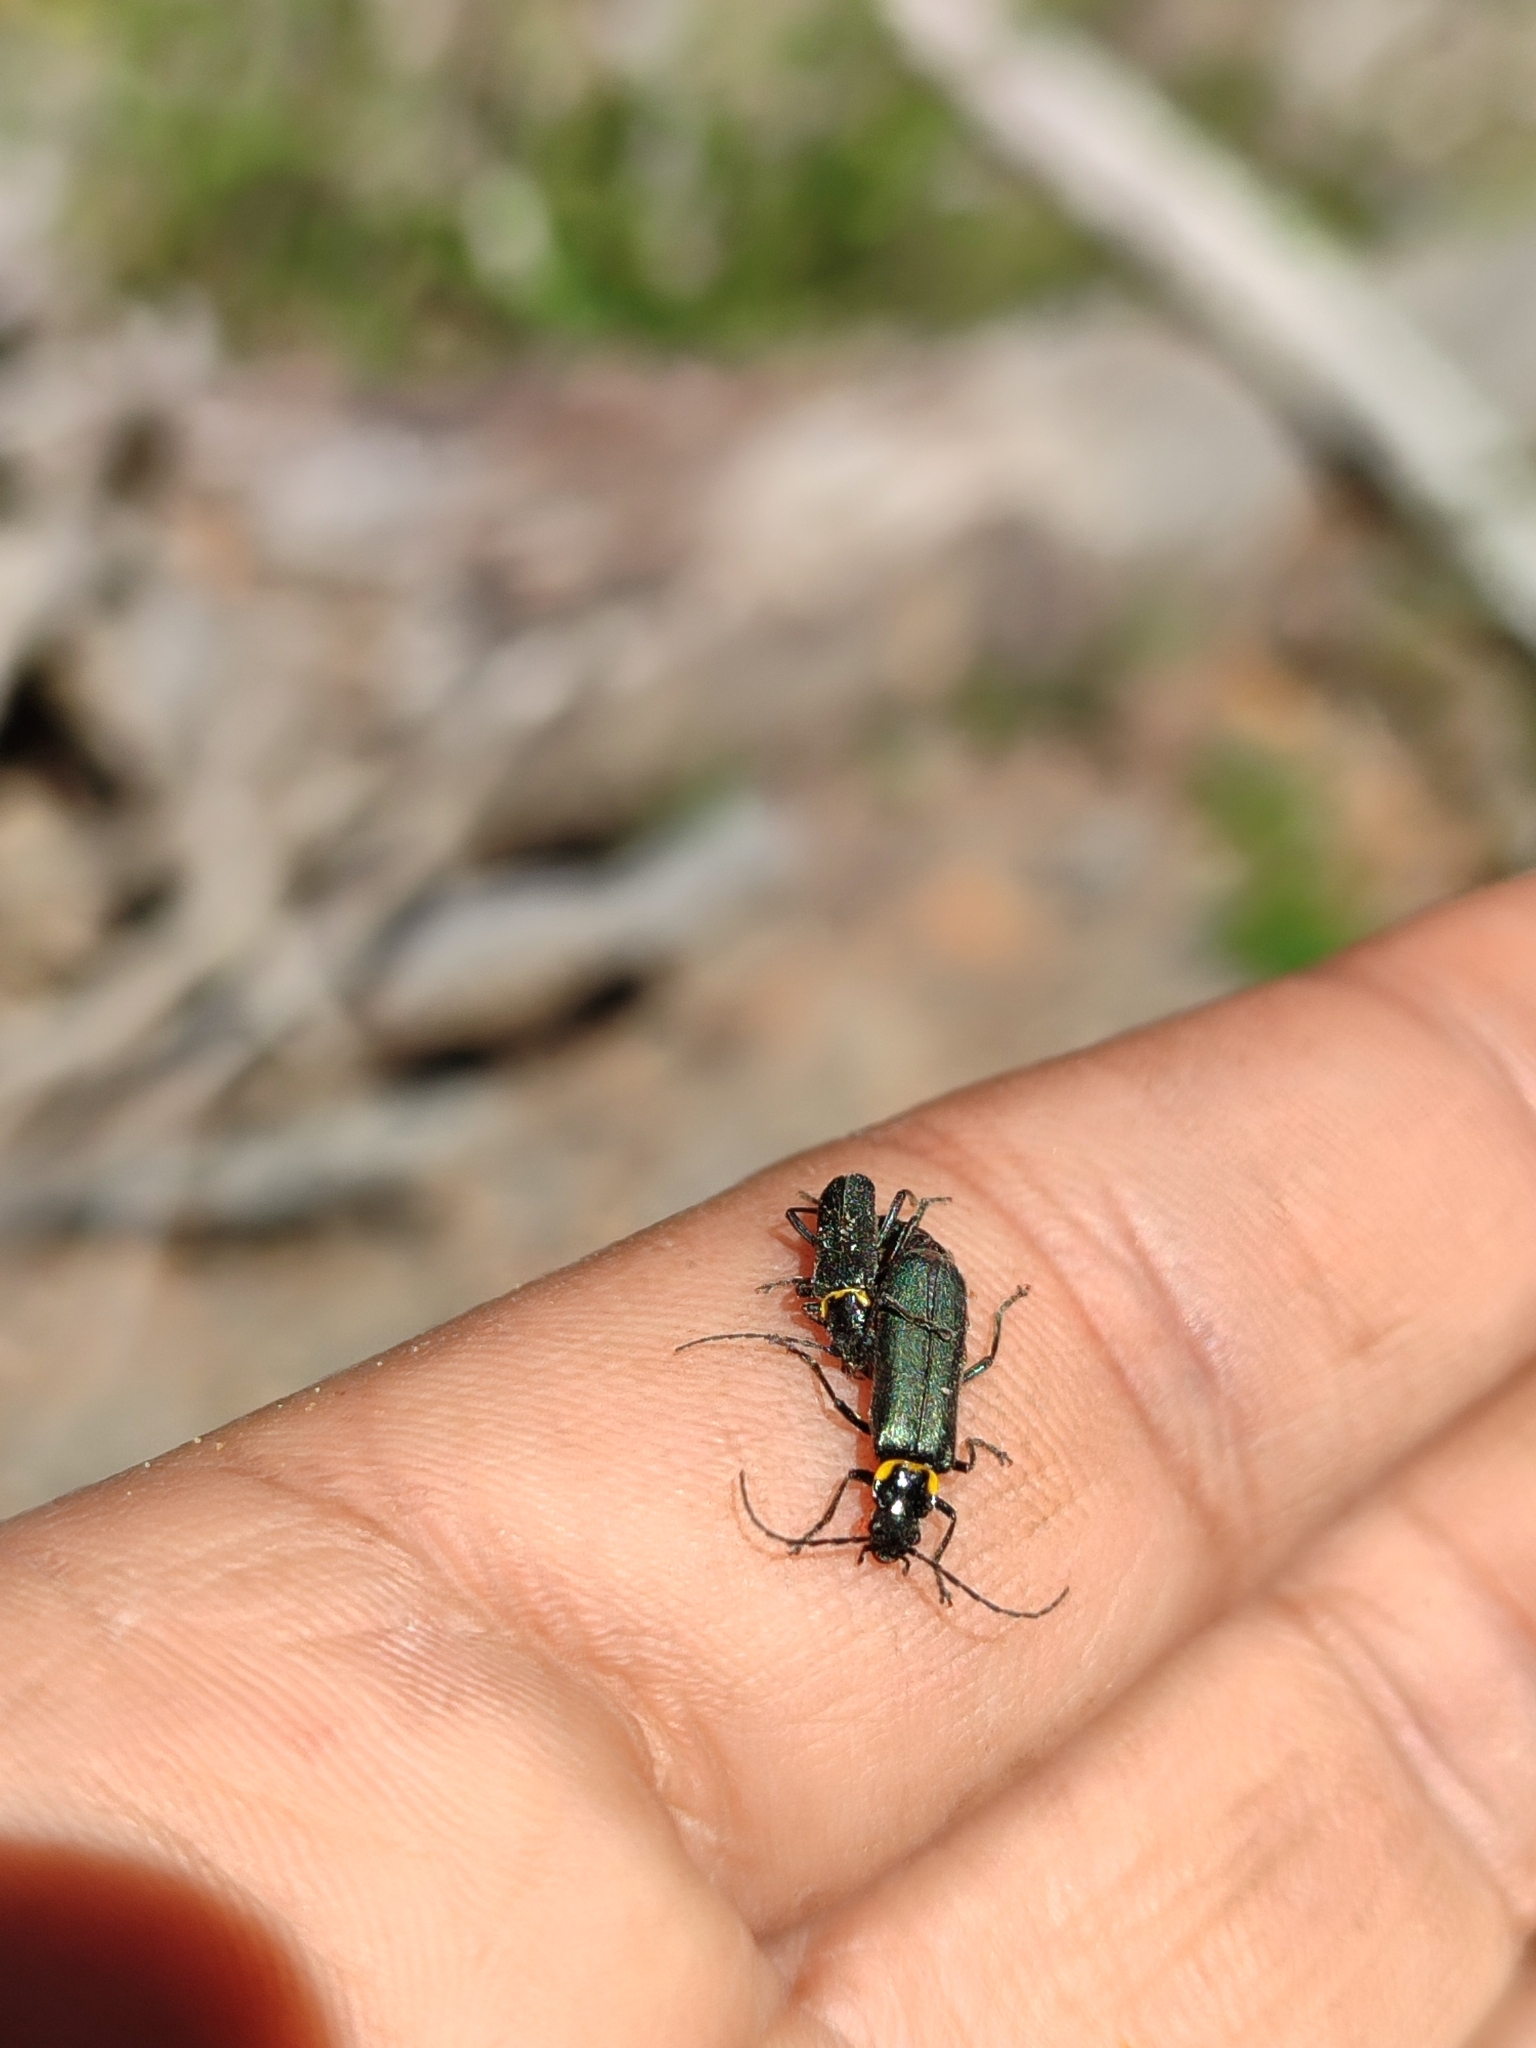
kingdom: Animalia
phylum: Arthropoda
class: Insecta
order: Coleoptera
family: Cantharidae
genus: Chauliognathus
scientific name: Chauliognathus
